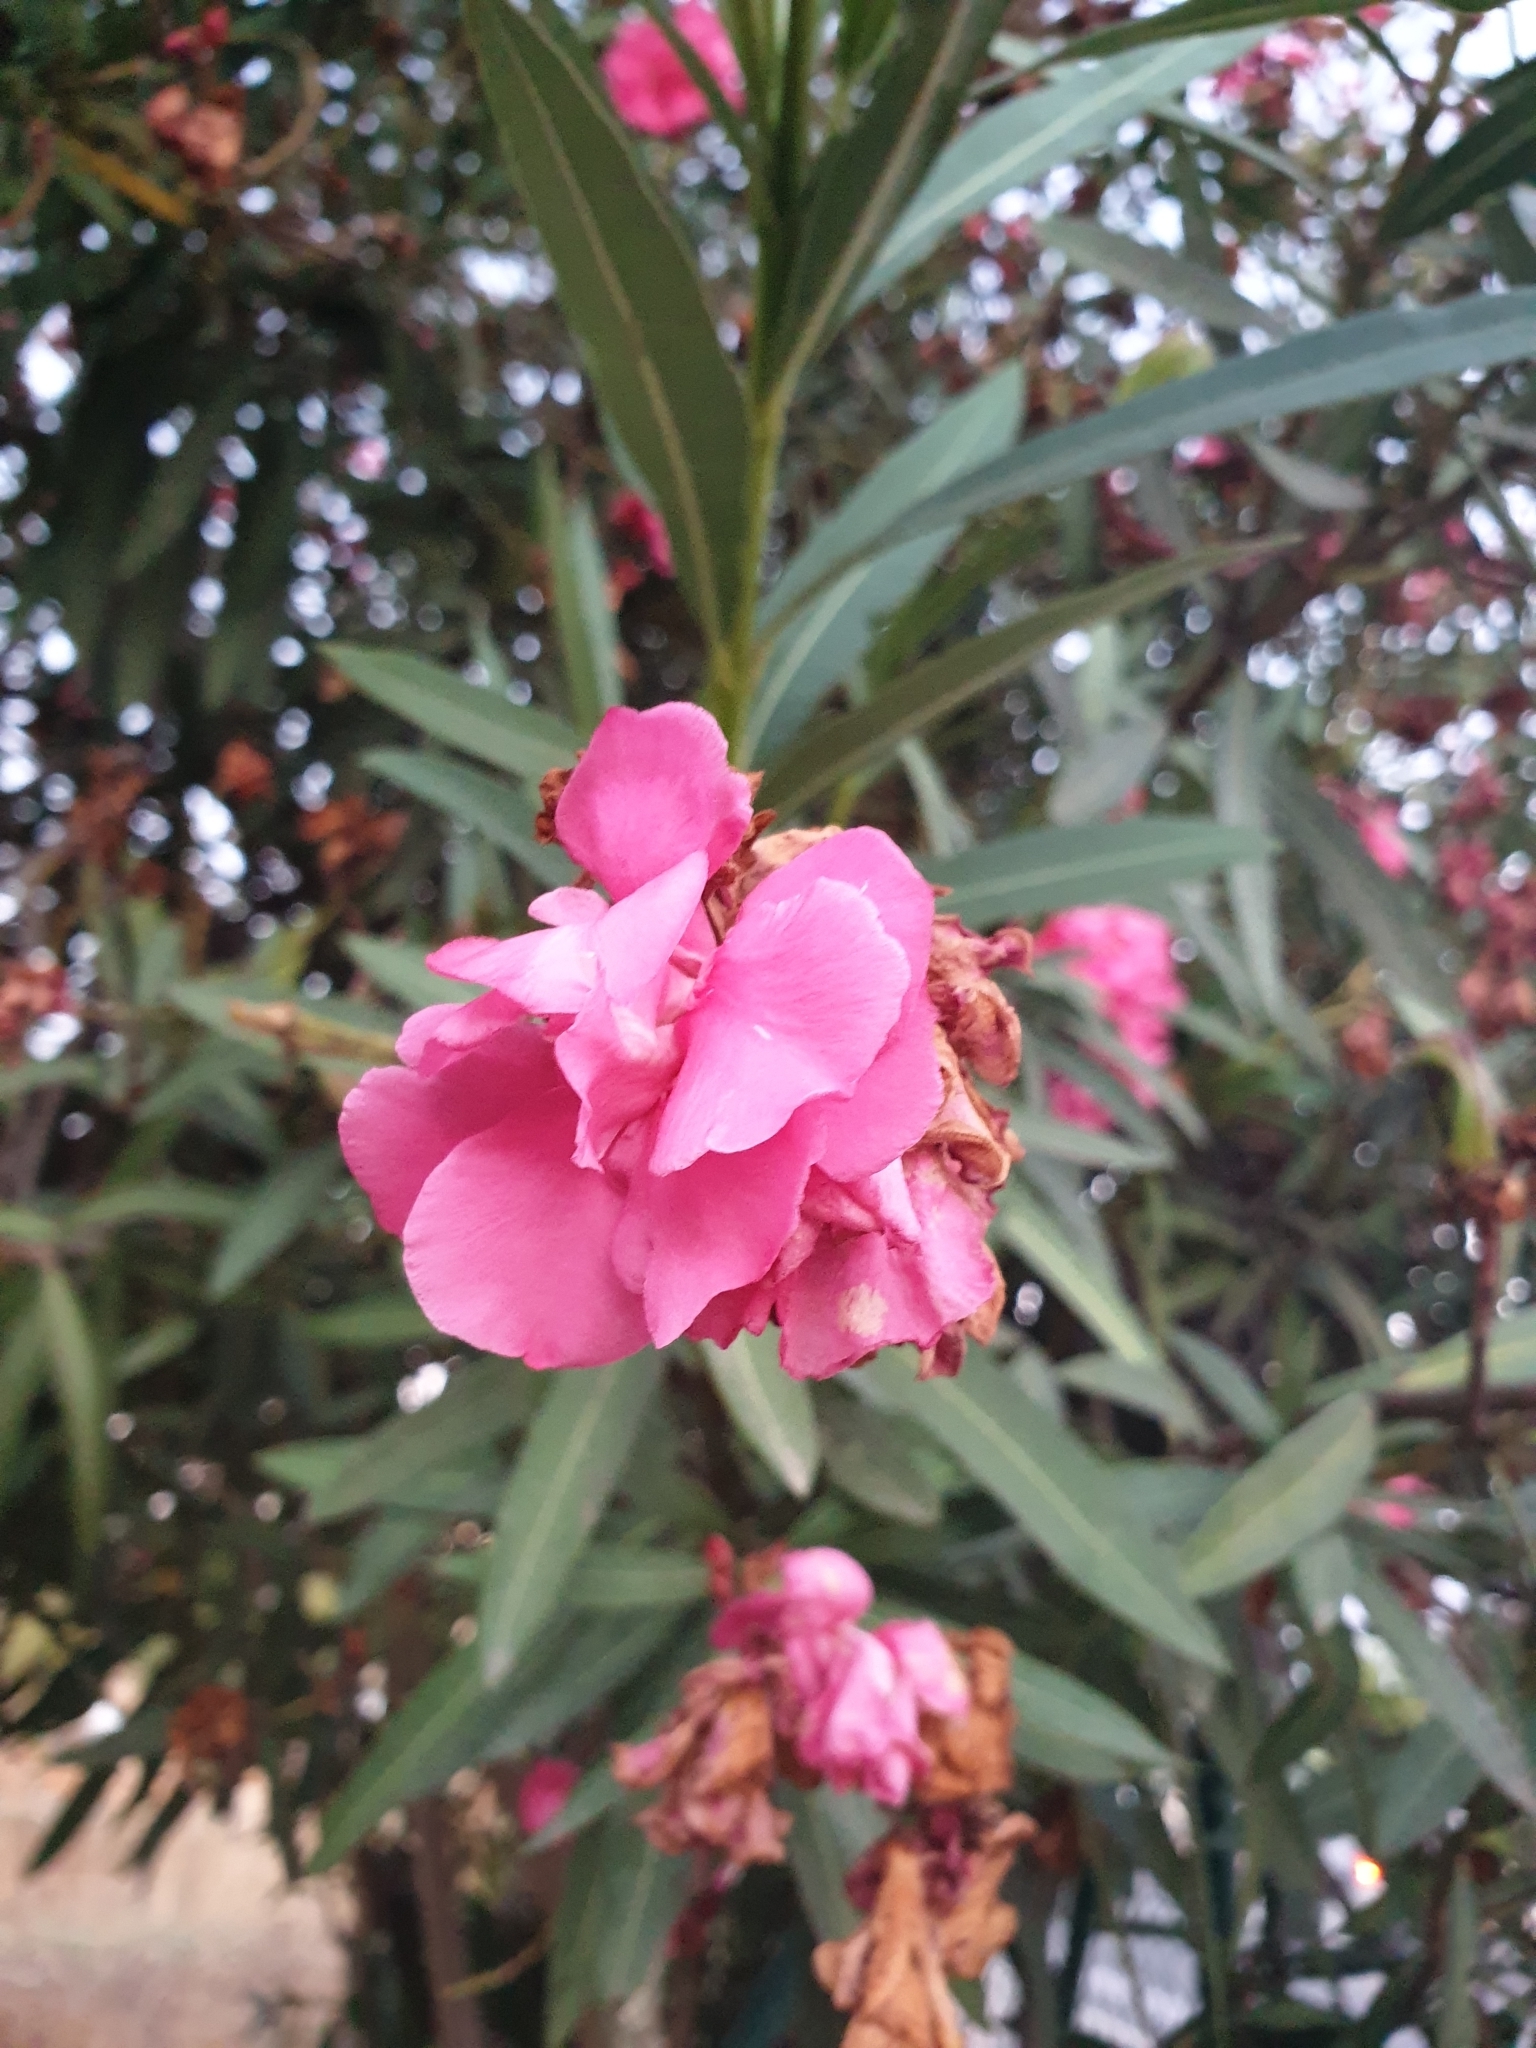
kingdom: Plantae
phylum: Tracheophyta
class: Magnoliopsida
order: Gentianales
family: Apocynaceae
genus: Nerium
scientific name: Nerium oleander
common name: Oleander
